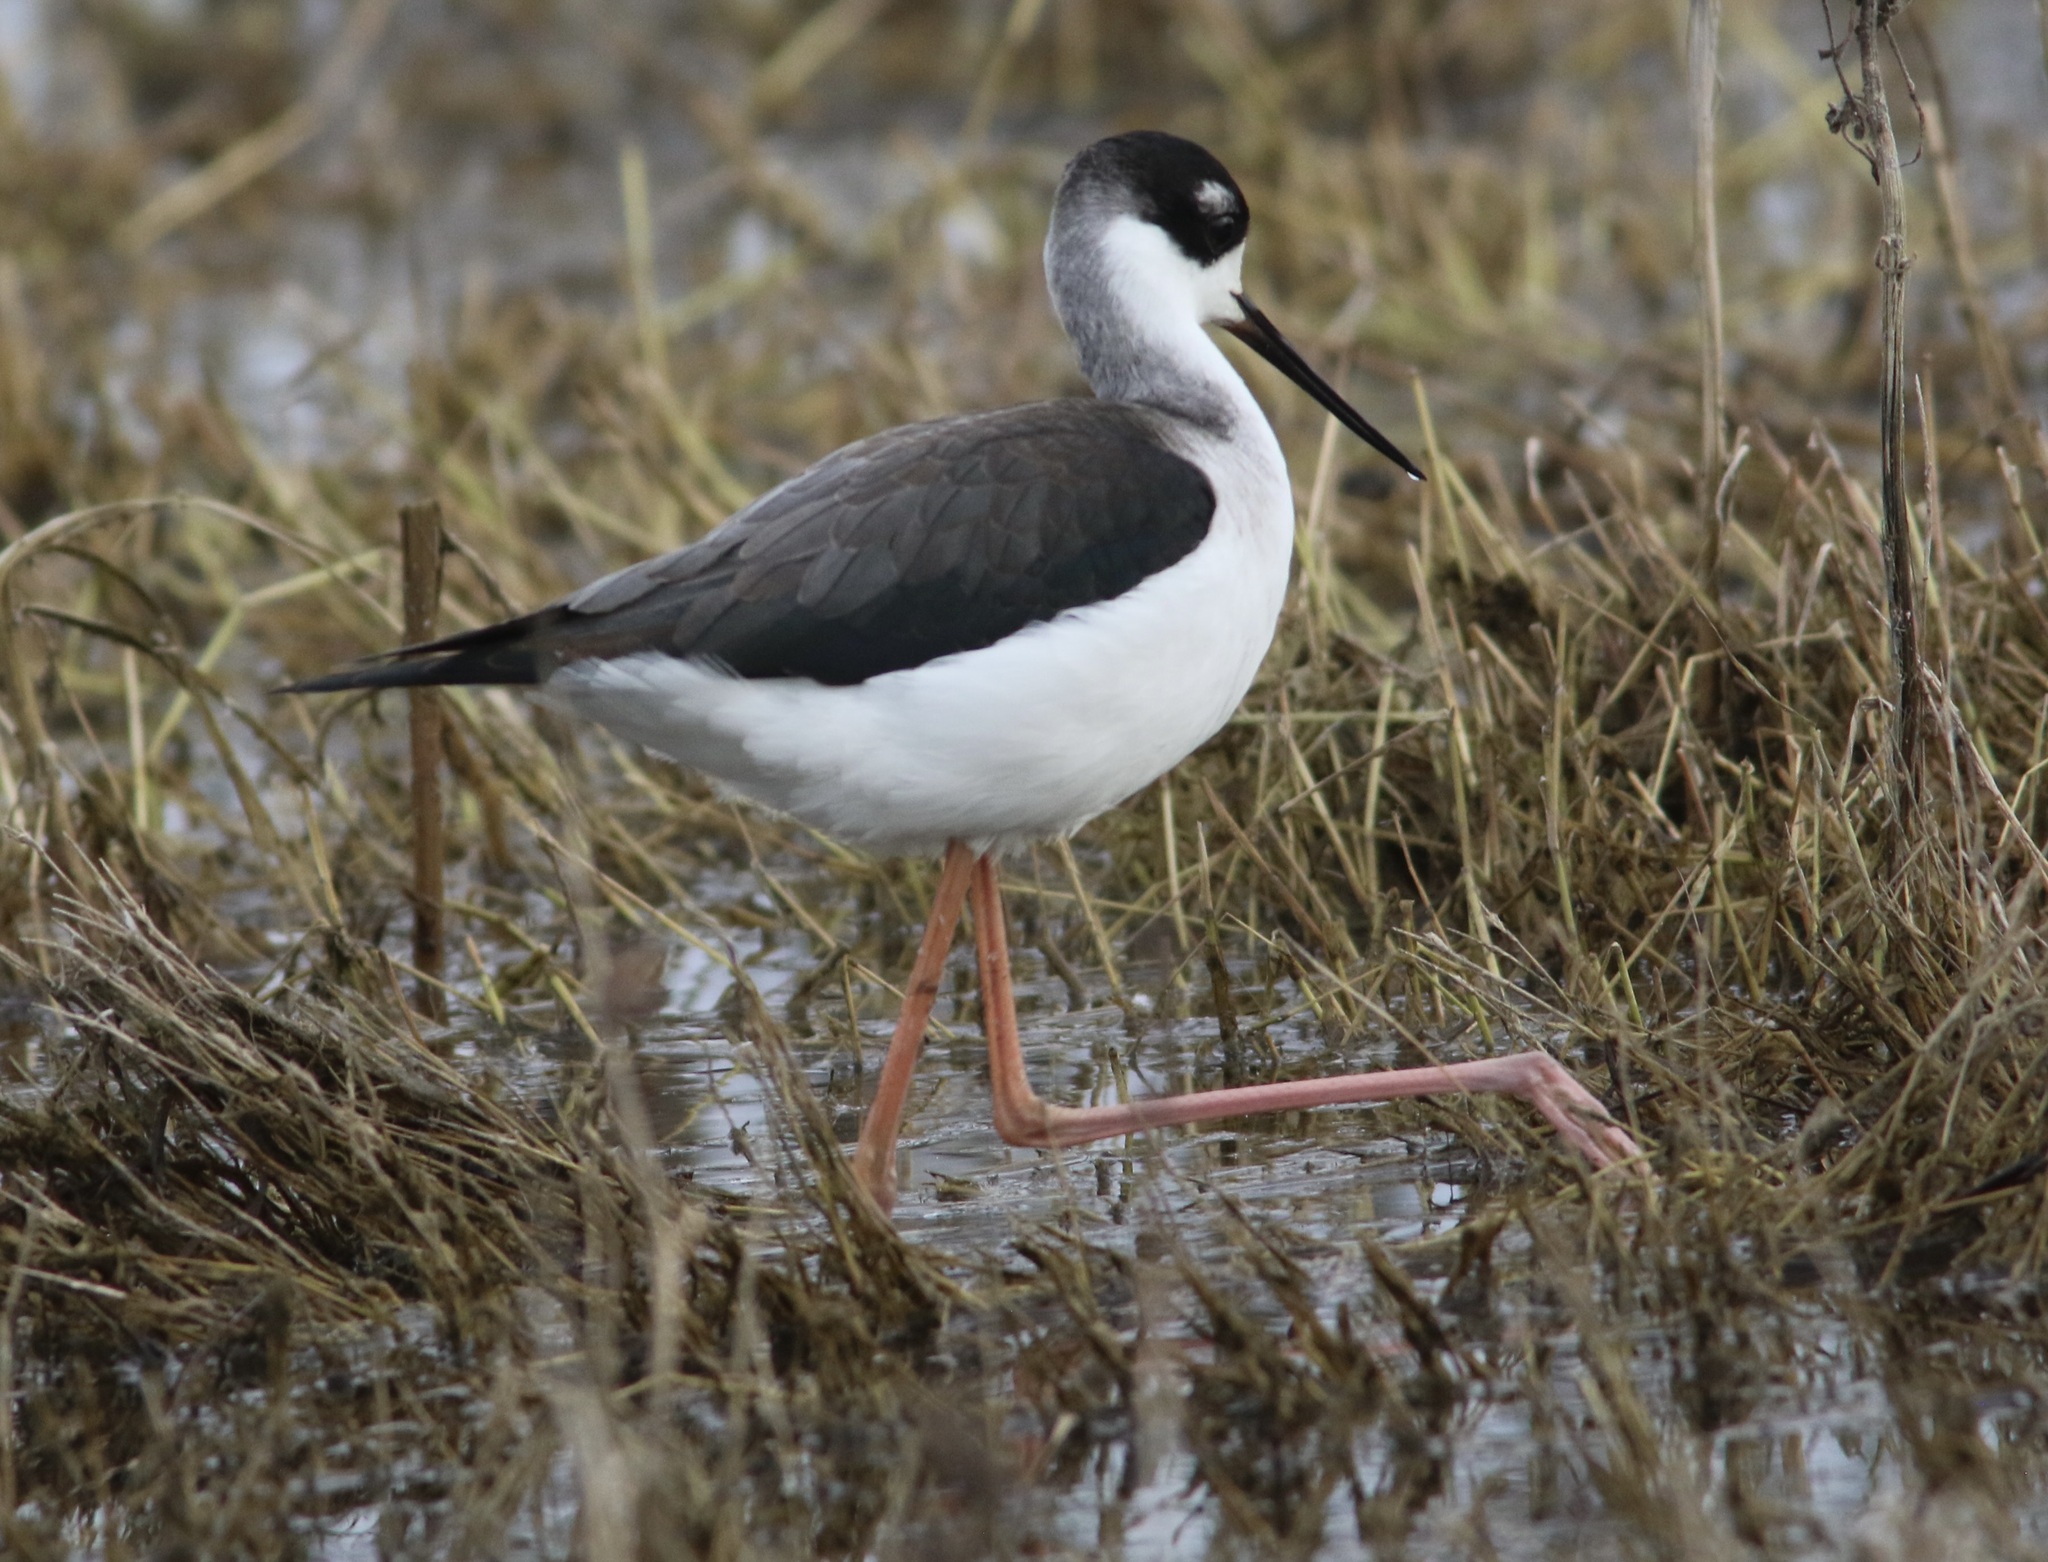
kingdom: Animalia
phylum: Chordata
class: Aves
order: Charadriiformes
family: Recurvirostridae
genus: Himantopus
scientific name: Himantopus mexicanus
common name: Black-necked stilt
